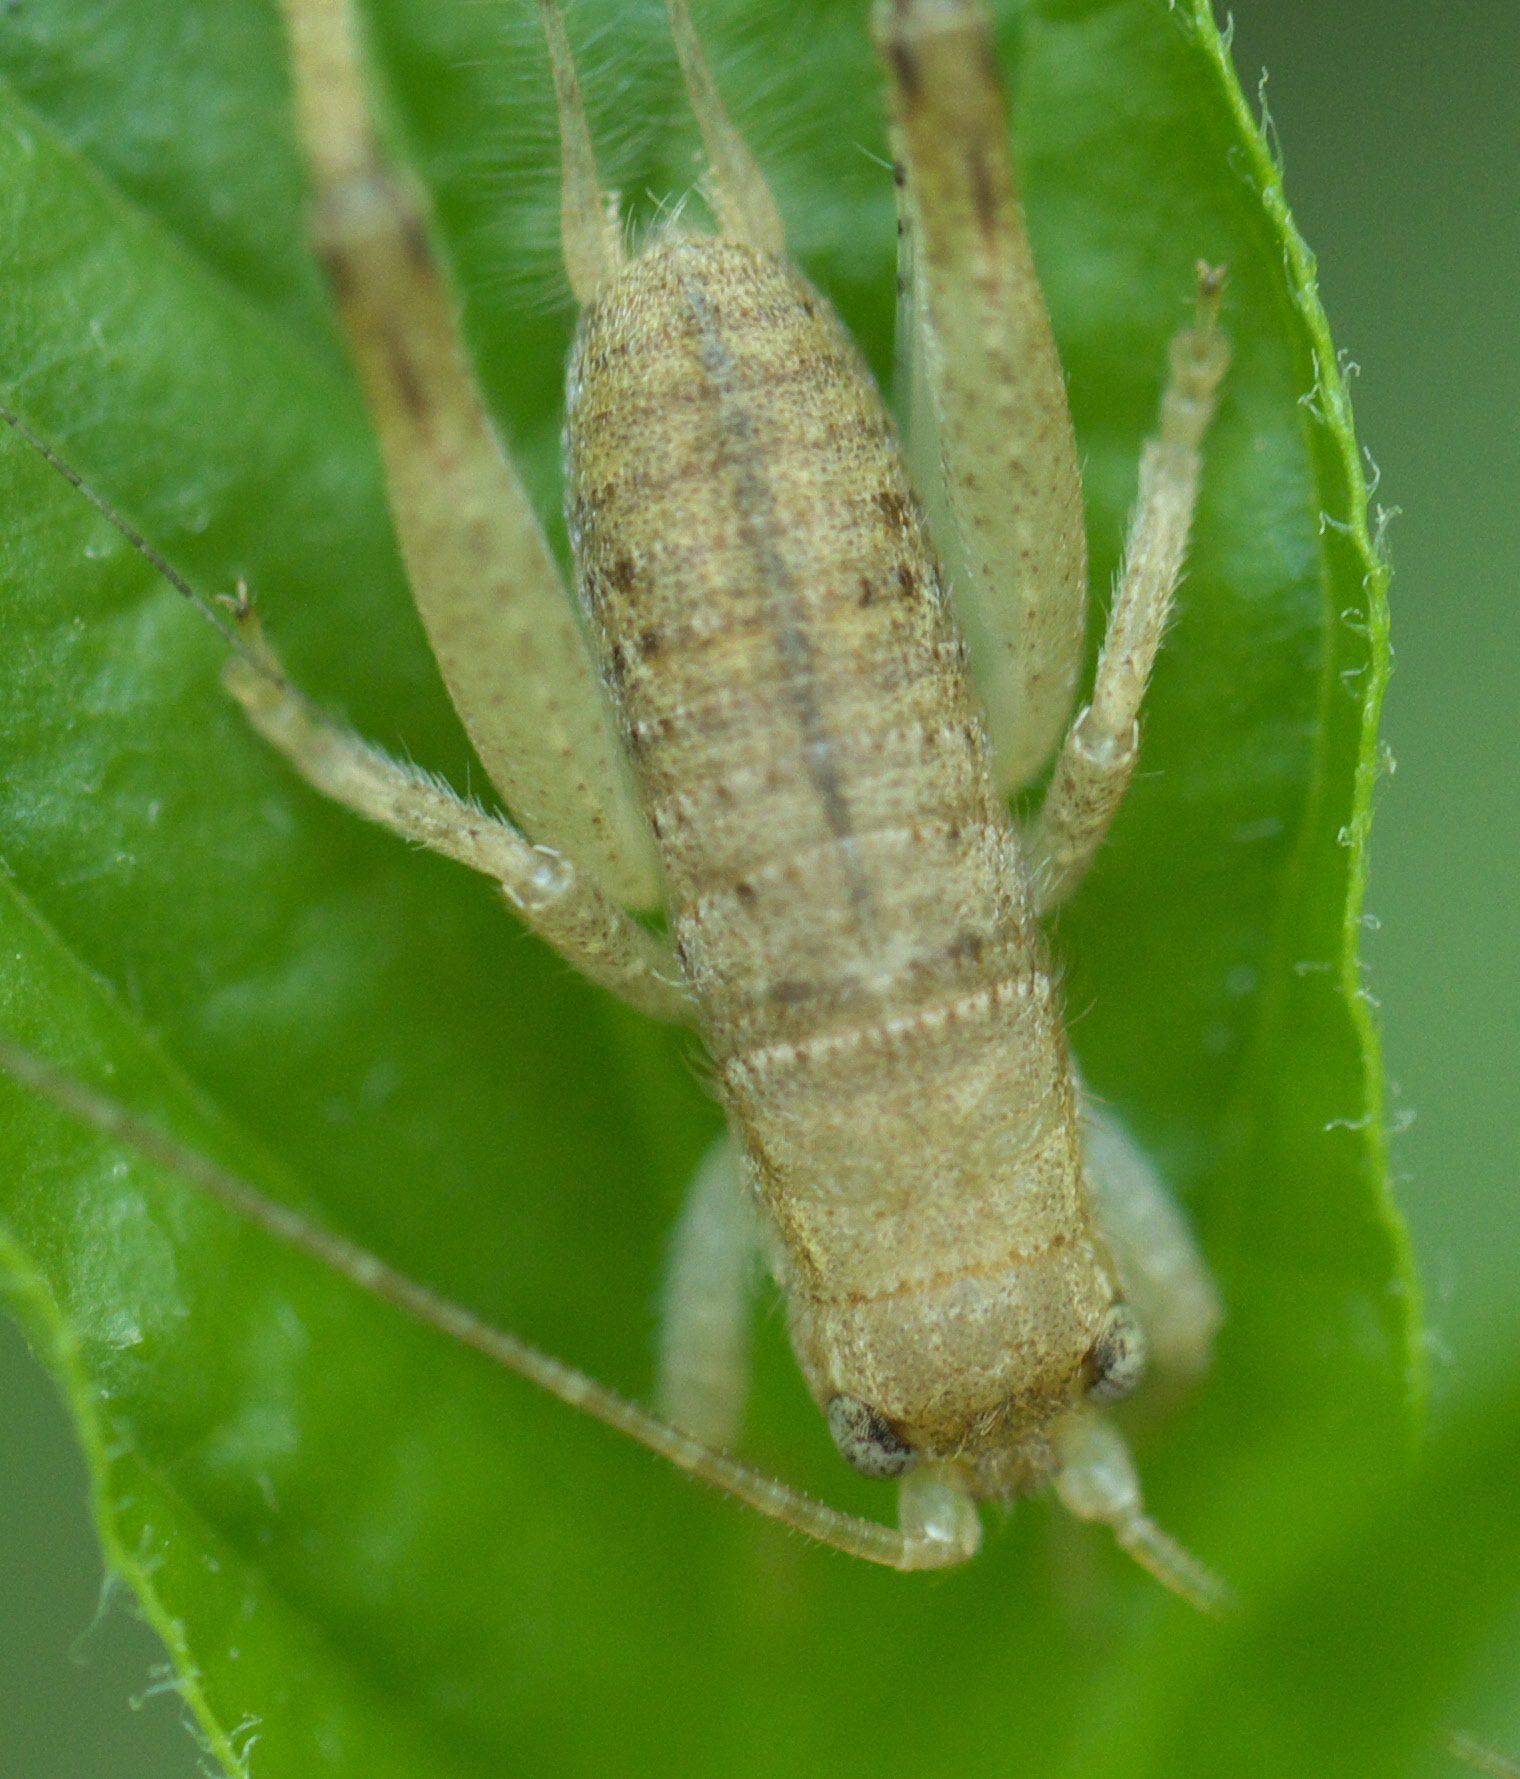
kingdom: Animalia
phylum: Arthropoda
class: Insecta
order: Orthoptera
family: Gryllidae
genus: Hapithus
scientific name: Hapithus saltator
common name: Jumping bush cricket
